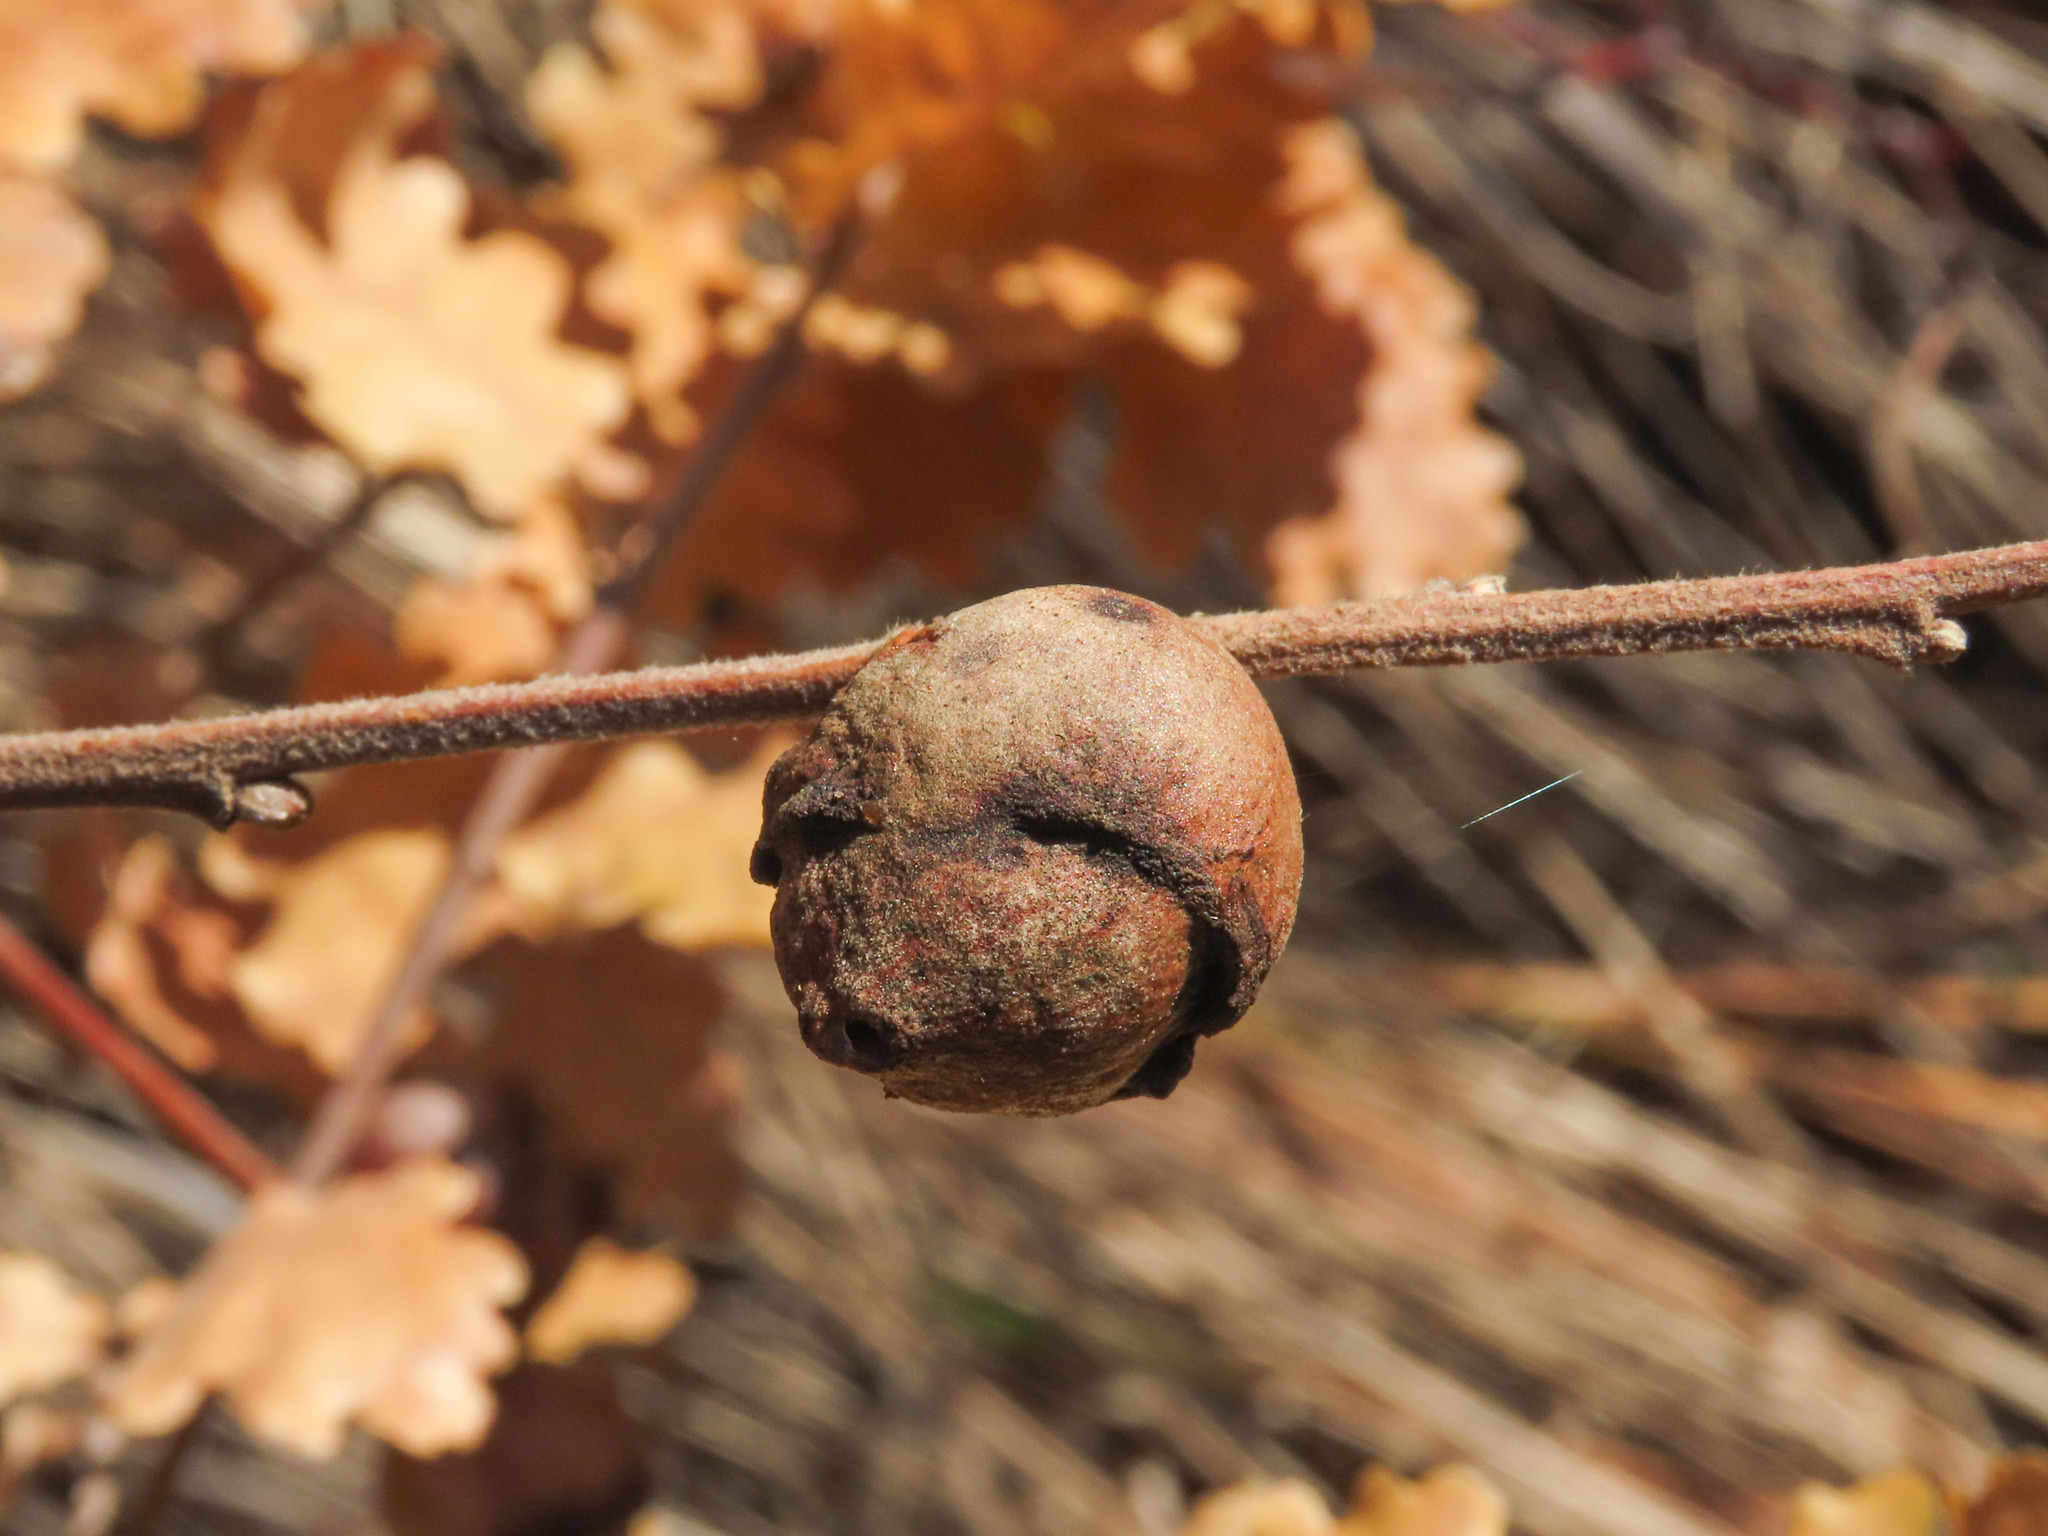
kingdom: Animalia
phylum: Arthropoda
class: Insecta
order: Hymenoptera
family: Cynipidae
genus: Andricus
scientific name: Andricus quercustozae
